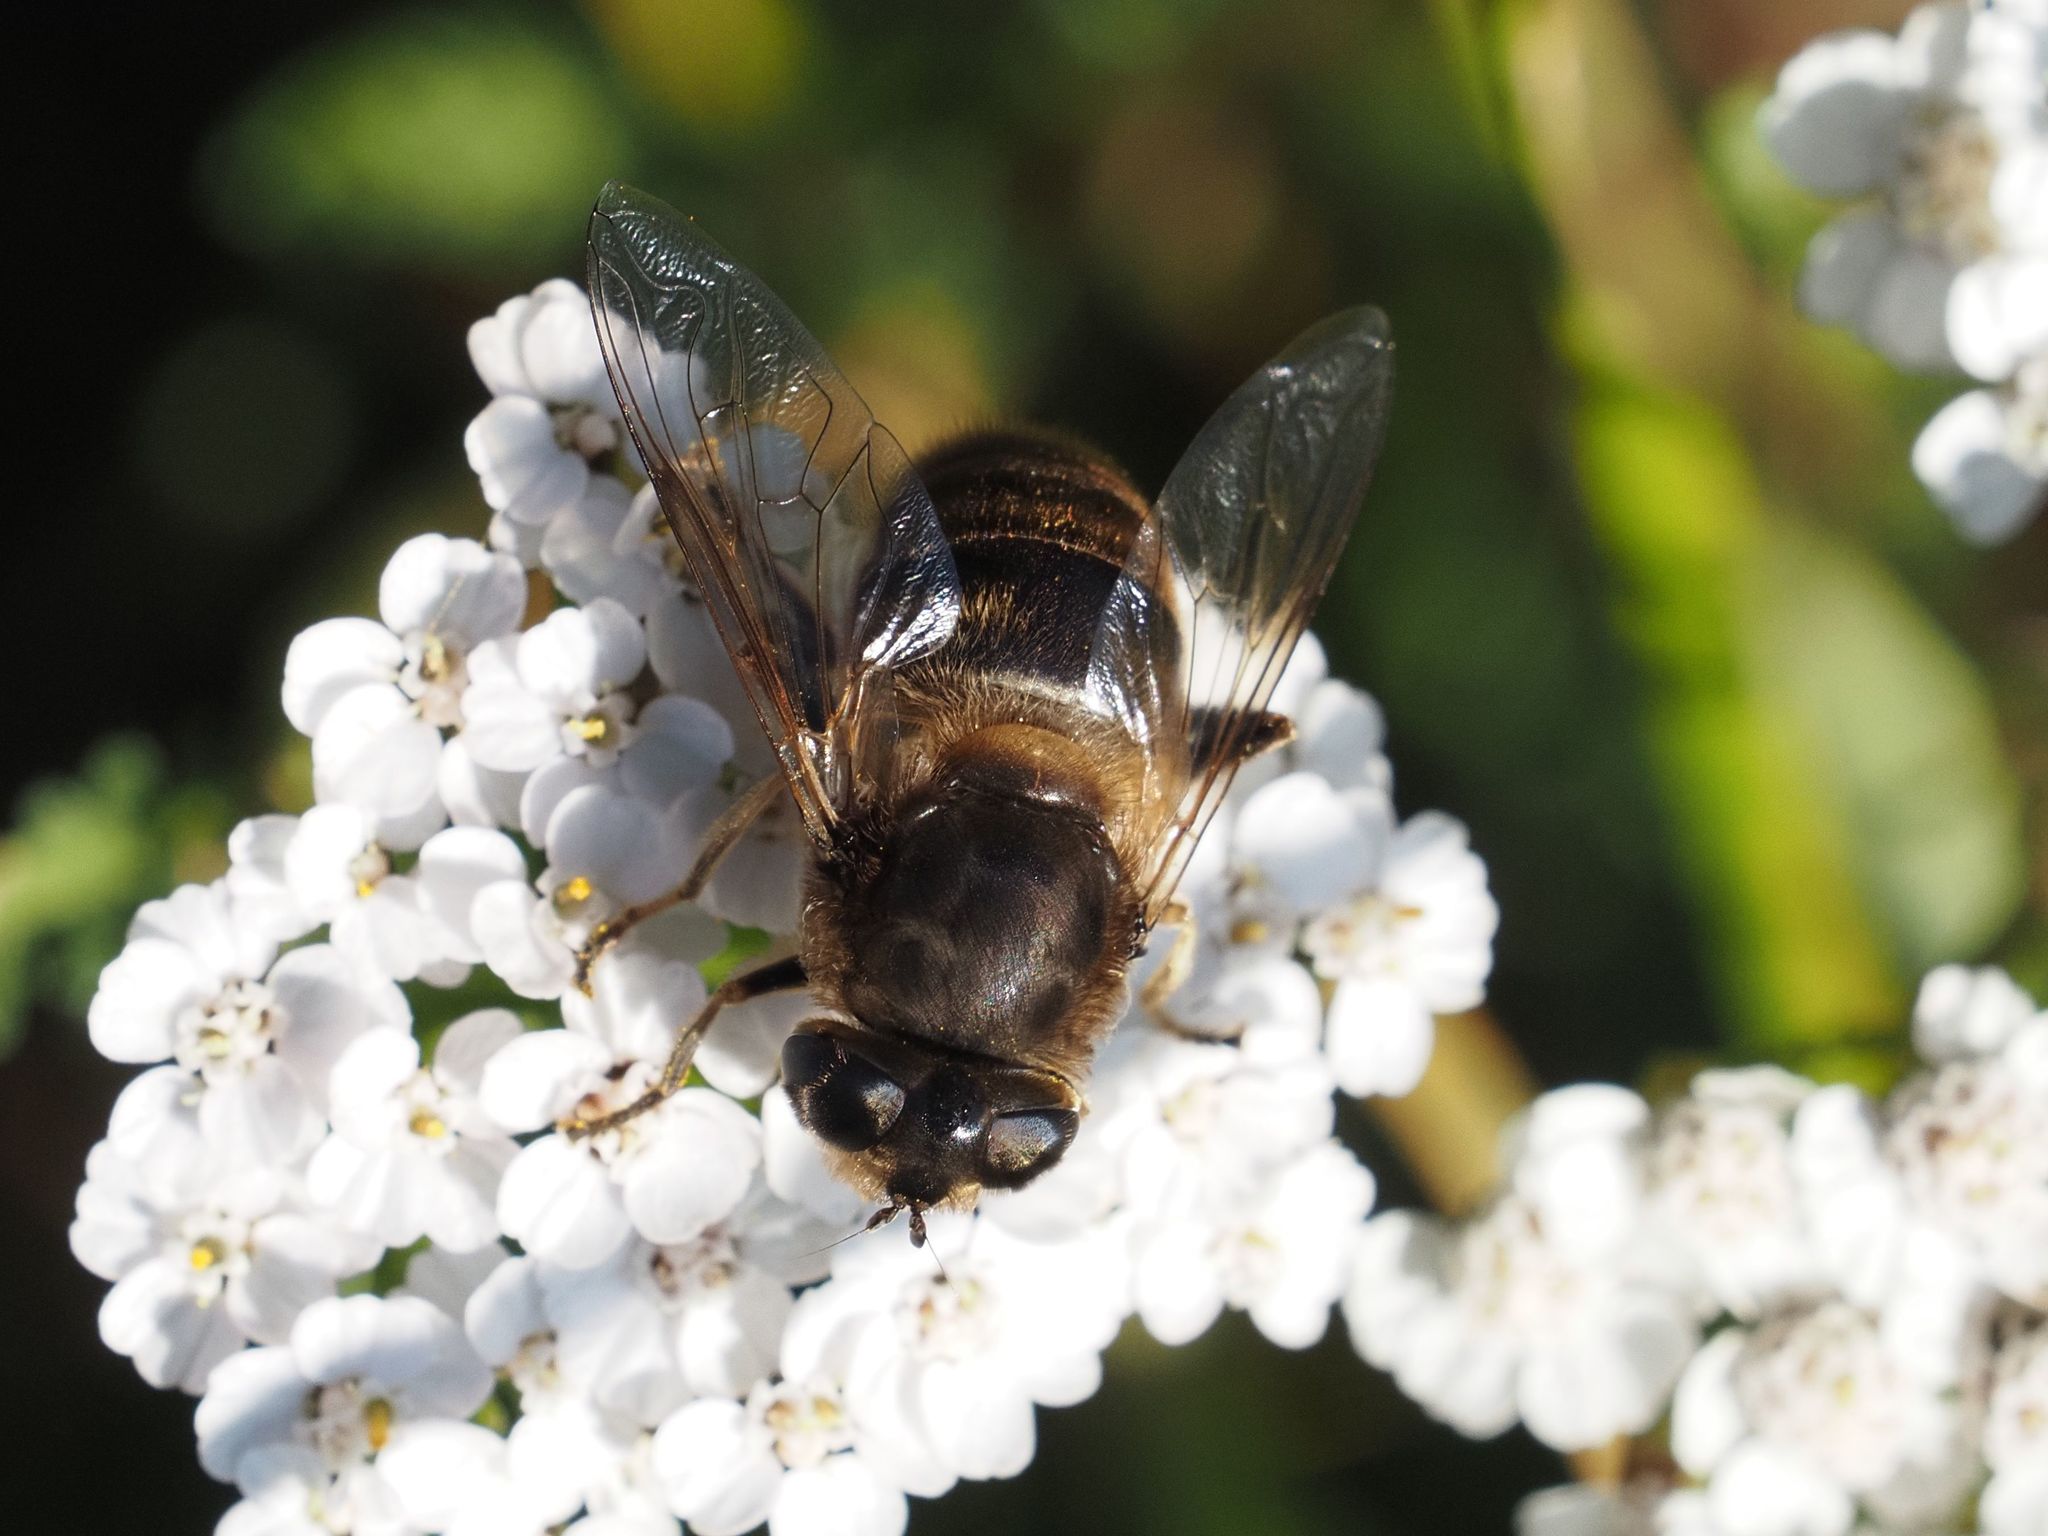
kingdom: Animalia
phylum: Arthropoda
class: Insecta
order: Diptera
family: Syrphidae
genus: Eristalis
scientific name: Eristalis tenax
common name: Drone fly
